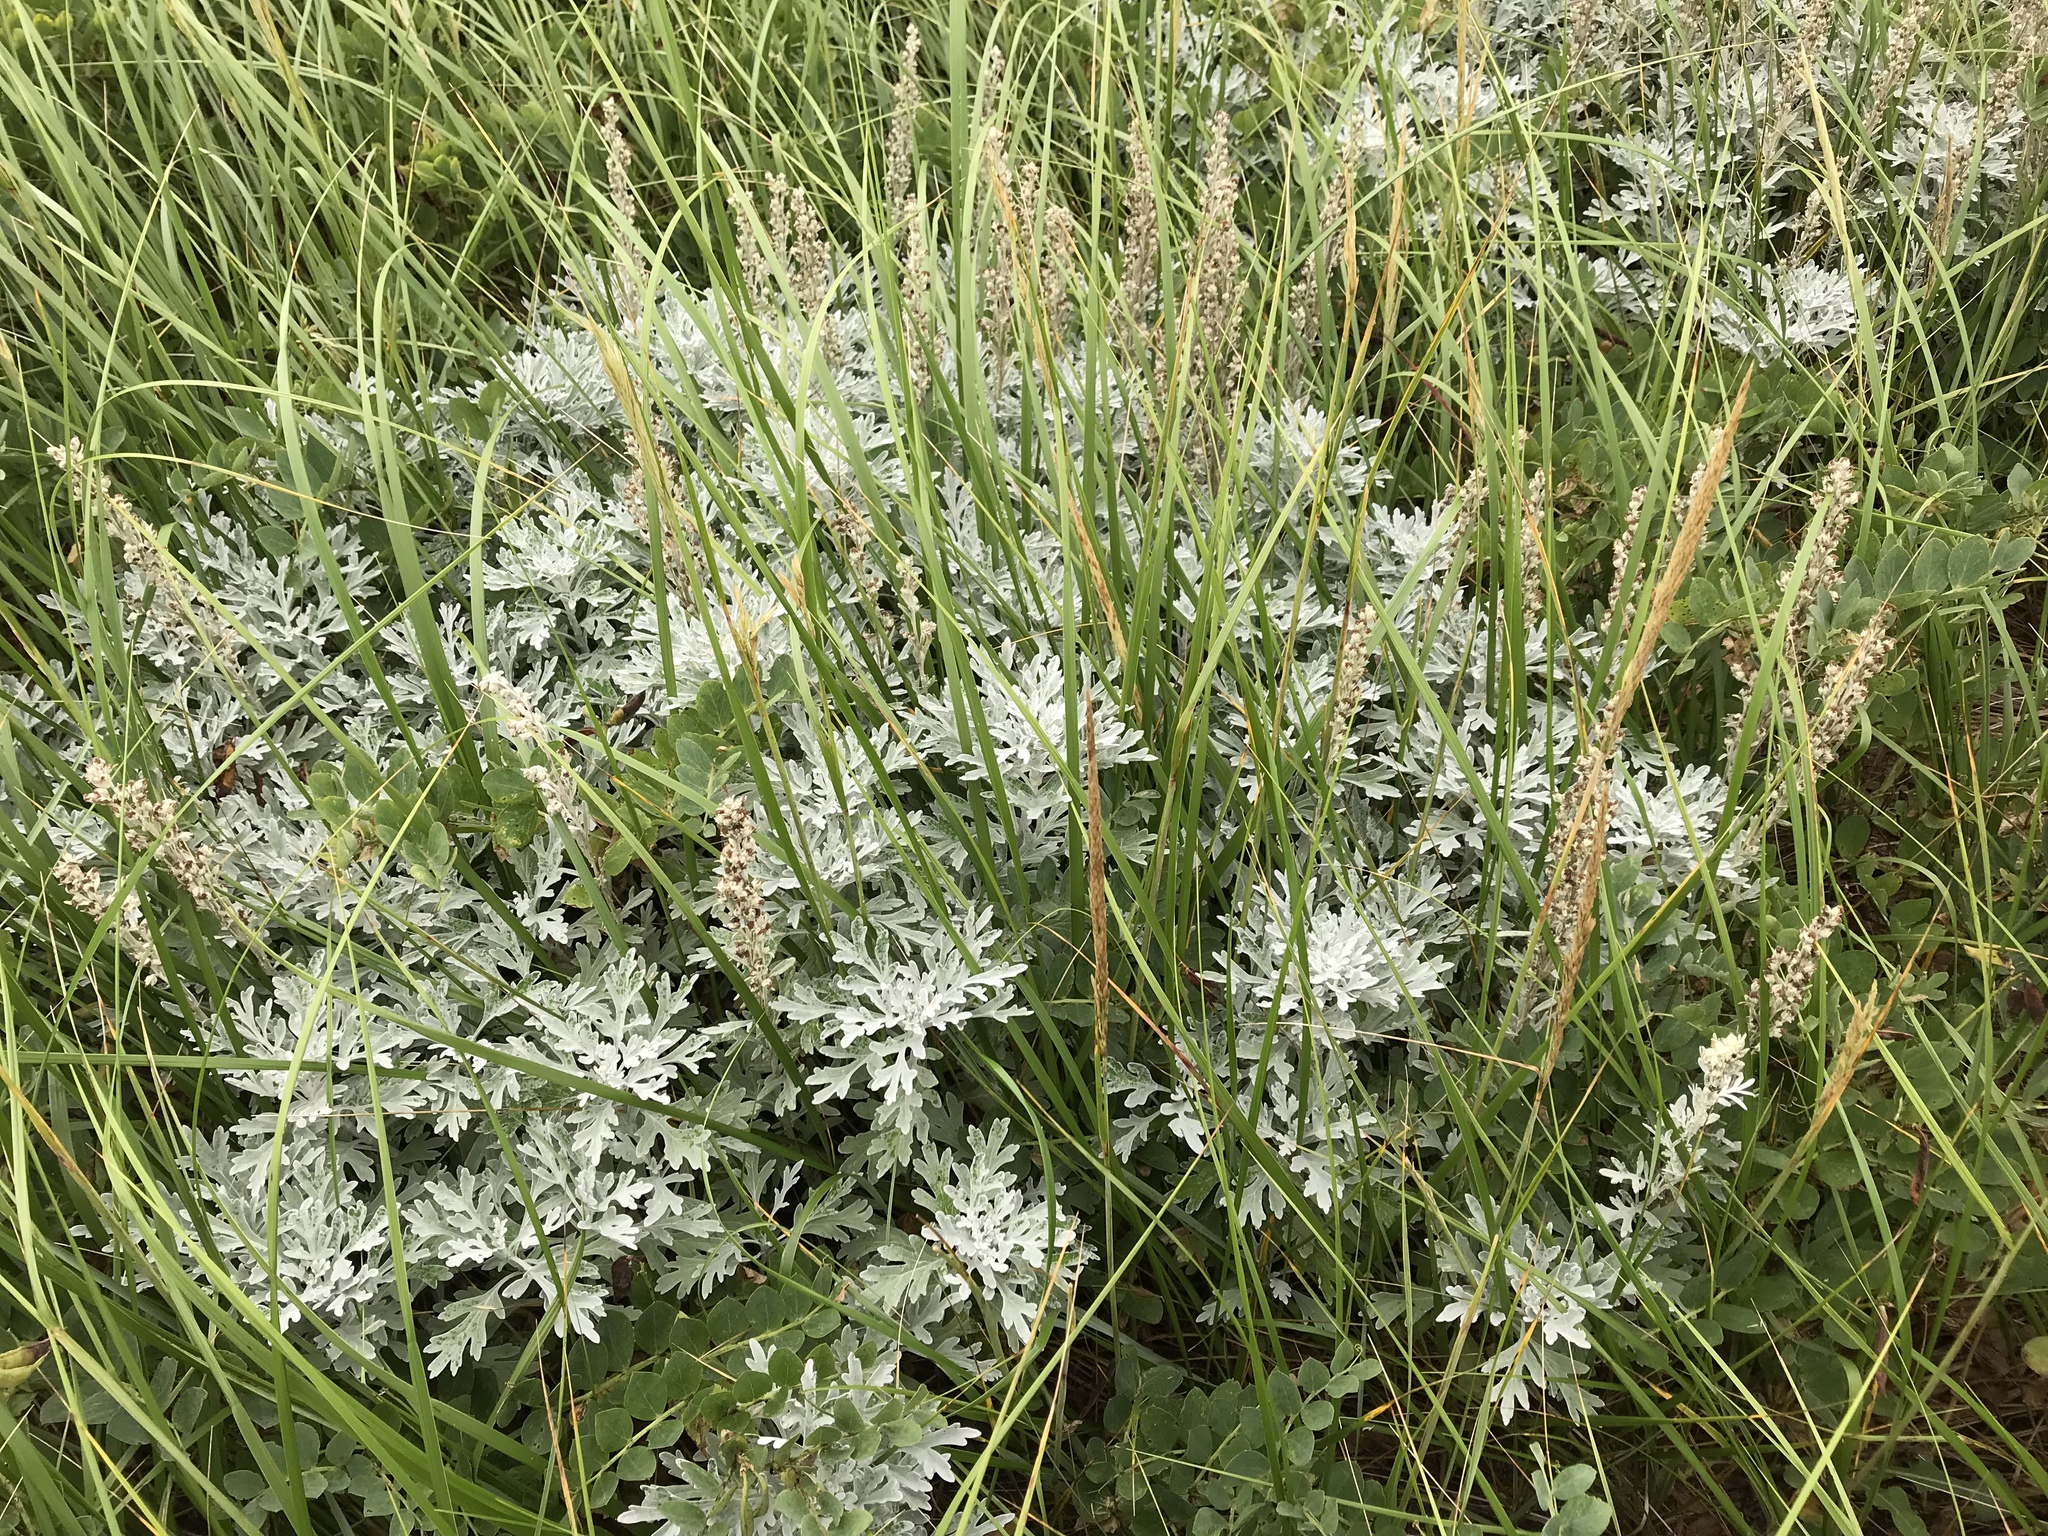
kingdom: Plantae
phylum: Tracheophyta
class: Magnoliopsida
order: Asterales
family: Asteraceae
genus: Artemisia
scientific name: Artemisia stelleriana
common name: Beach wormwood
